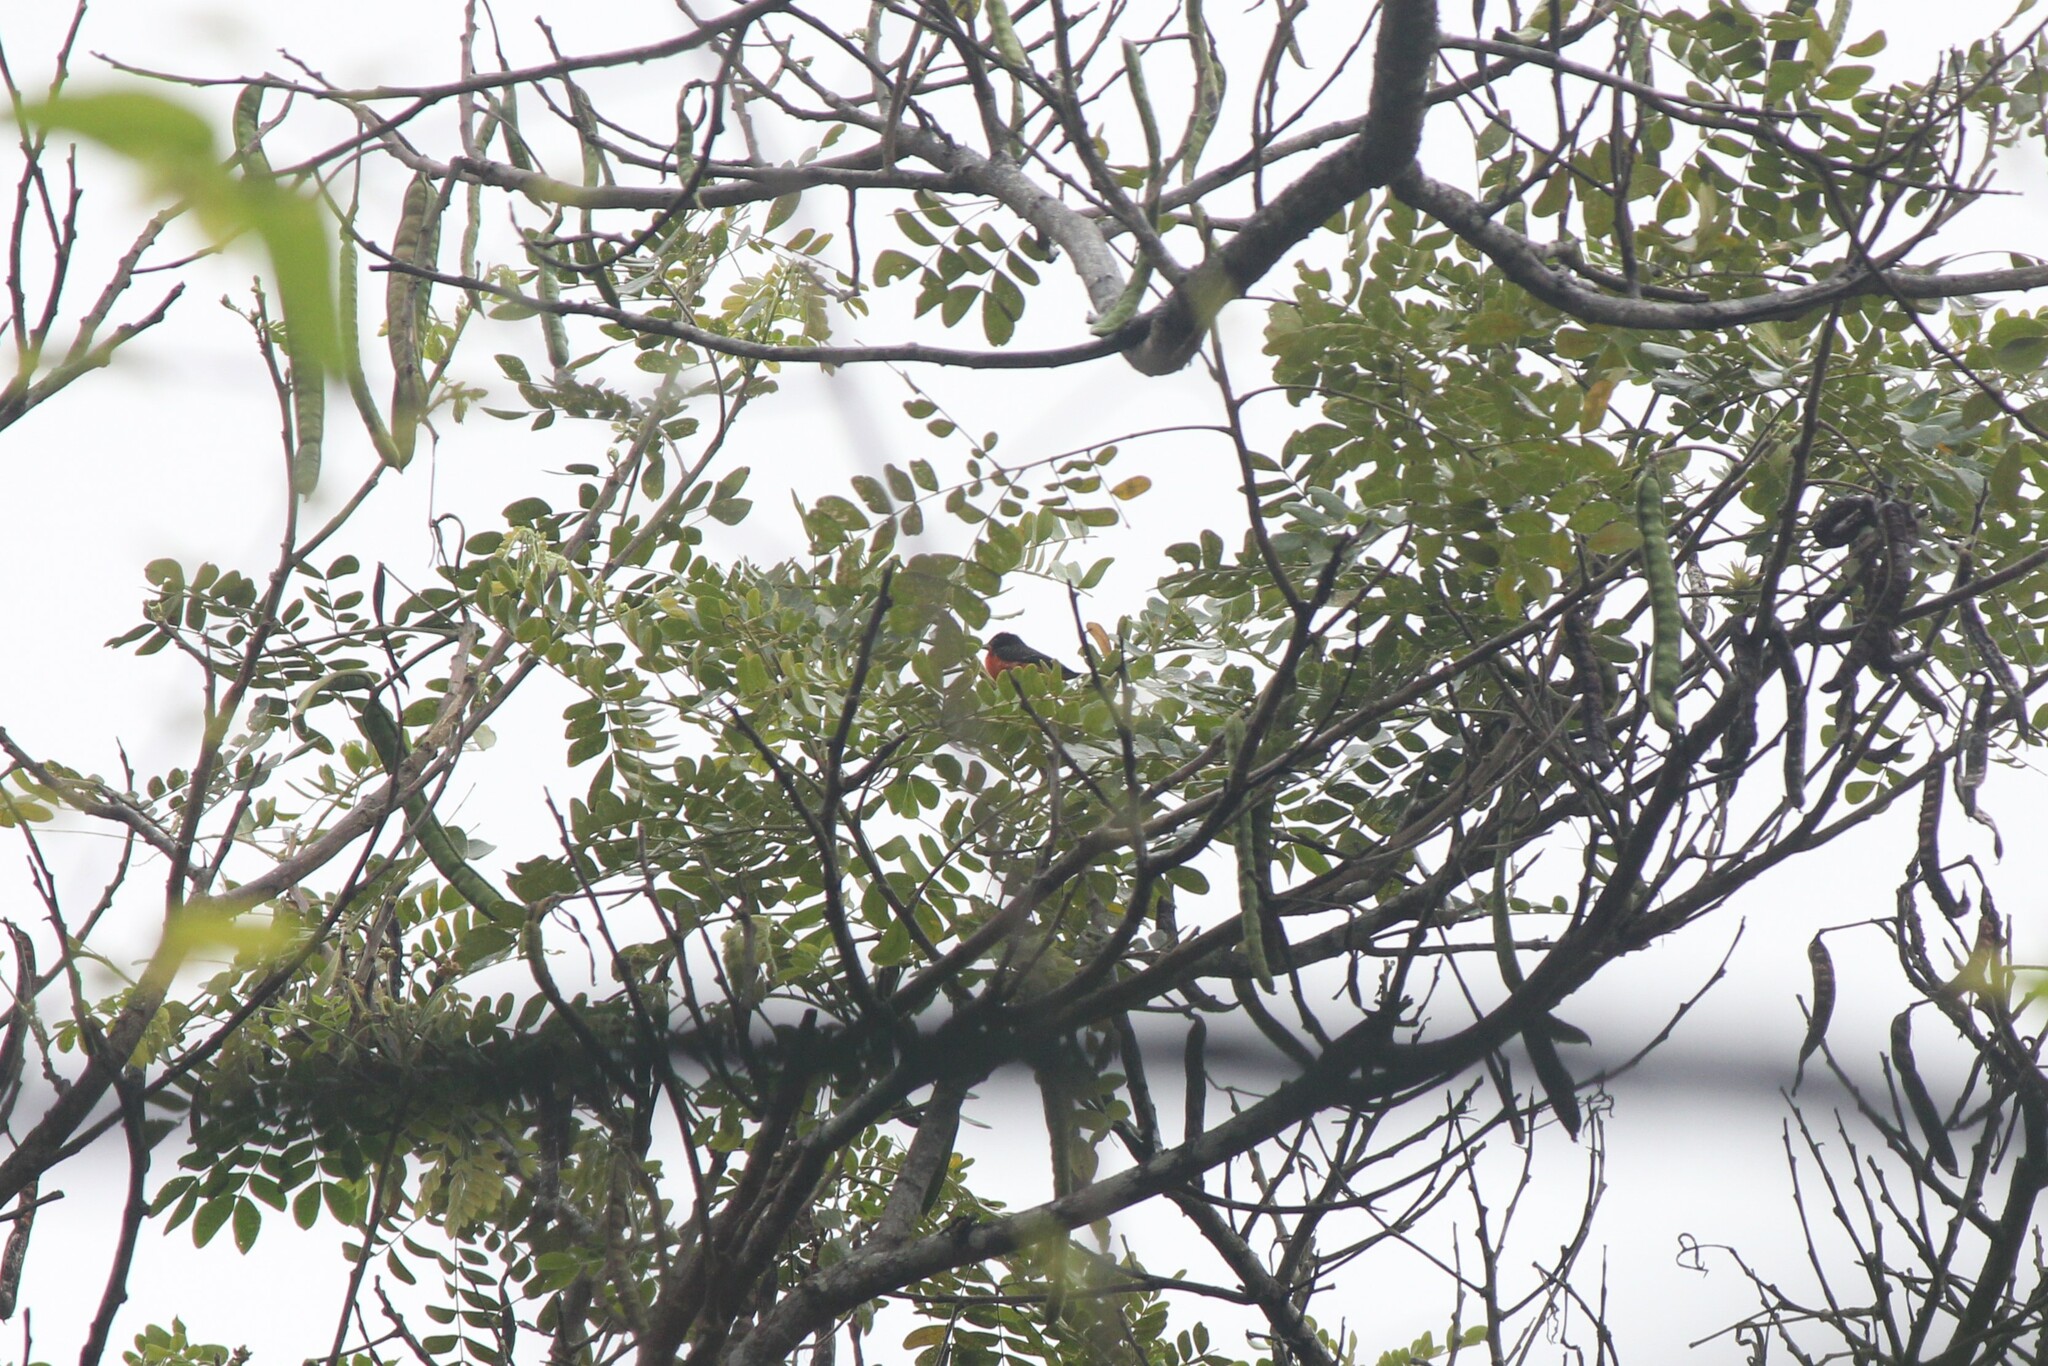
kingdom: Animalia
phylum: Chordata
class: Aves
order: Passeriformes
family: Thraupidae
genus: Rhodospingus
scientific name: Rhodospingus cruentus
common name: Crimson-breasted finch
